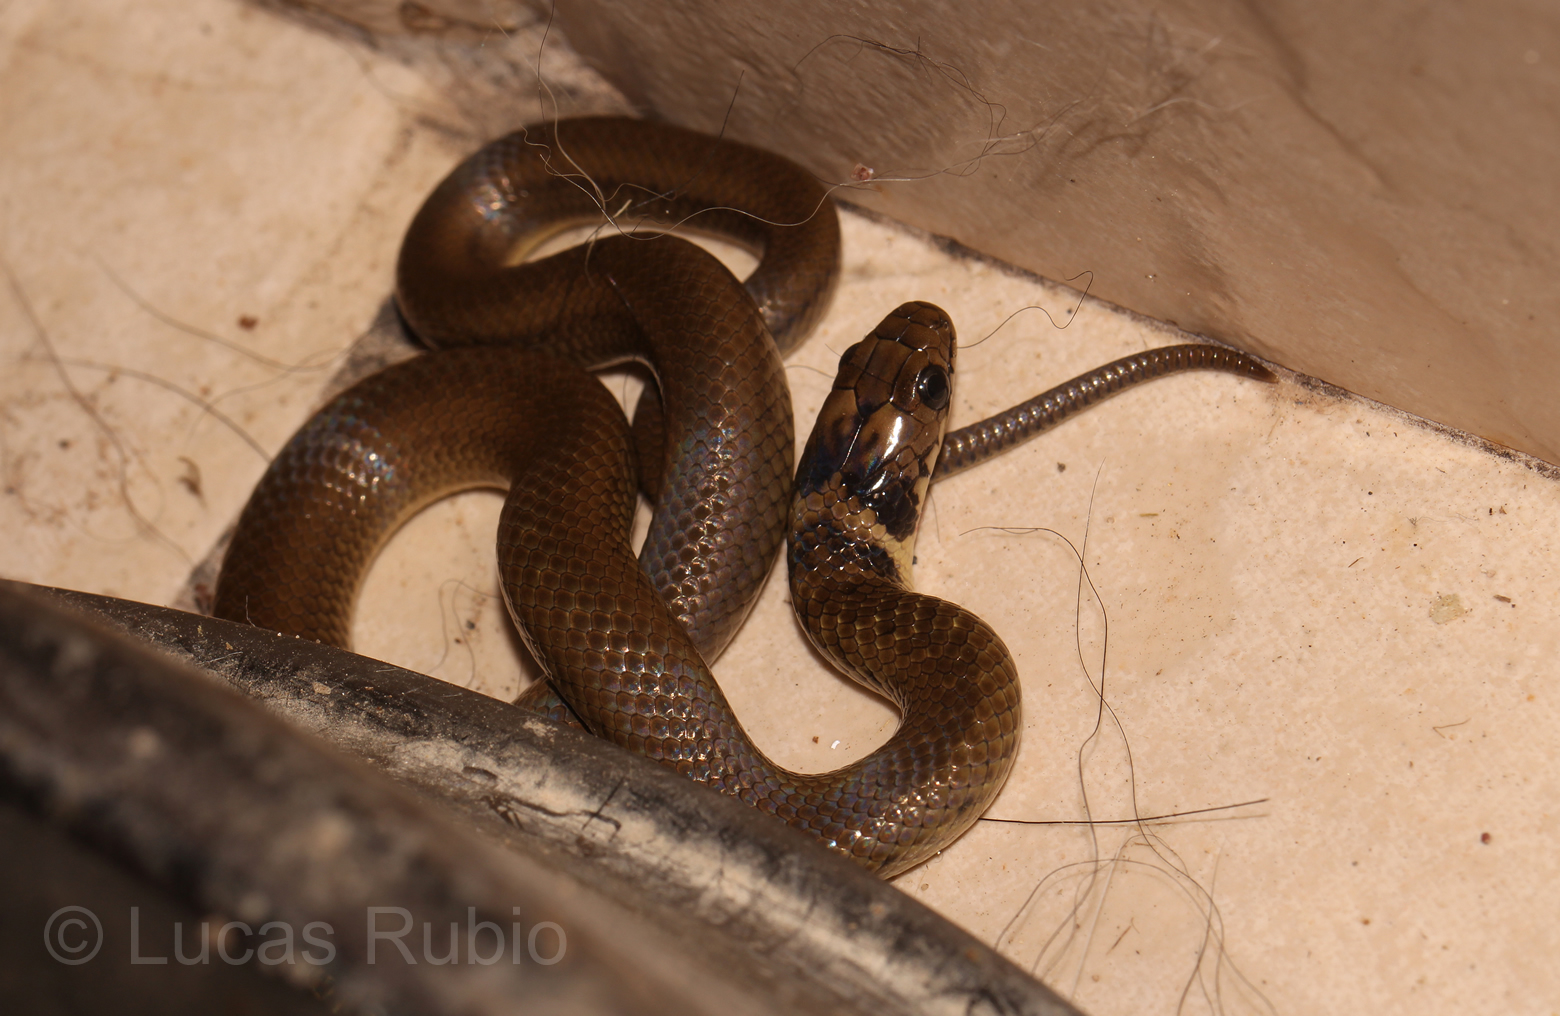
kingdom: Animalia
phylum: Chordata
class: Squamata
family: Colubridae
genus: Erythrolamprus
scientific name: Erythrolamprus semiaureus
